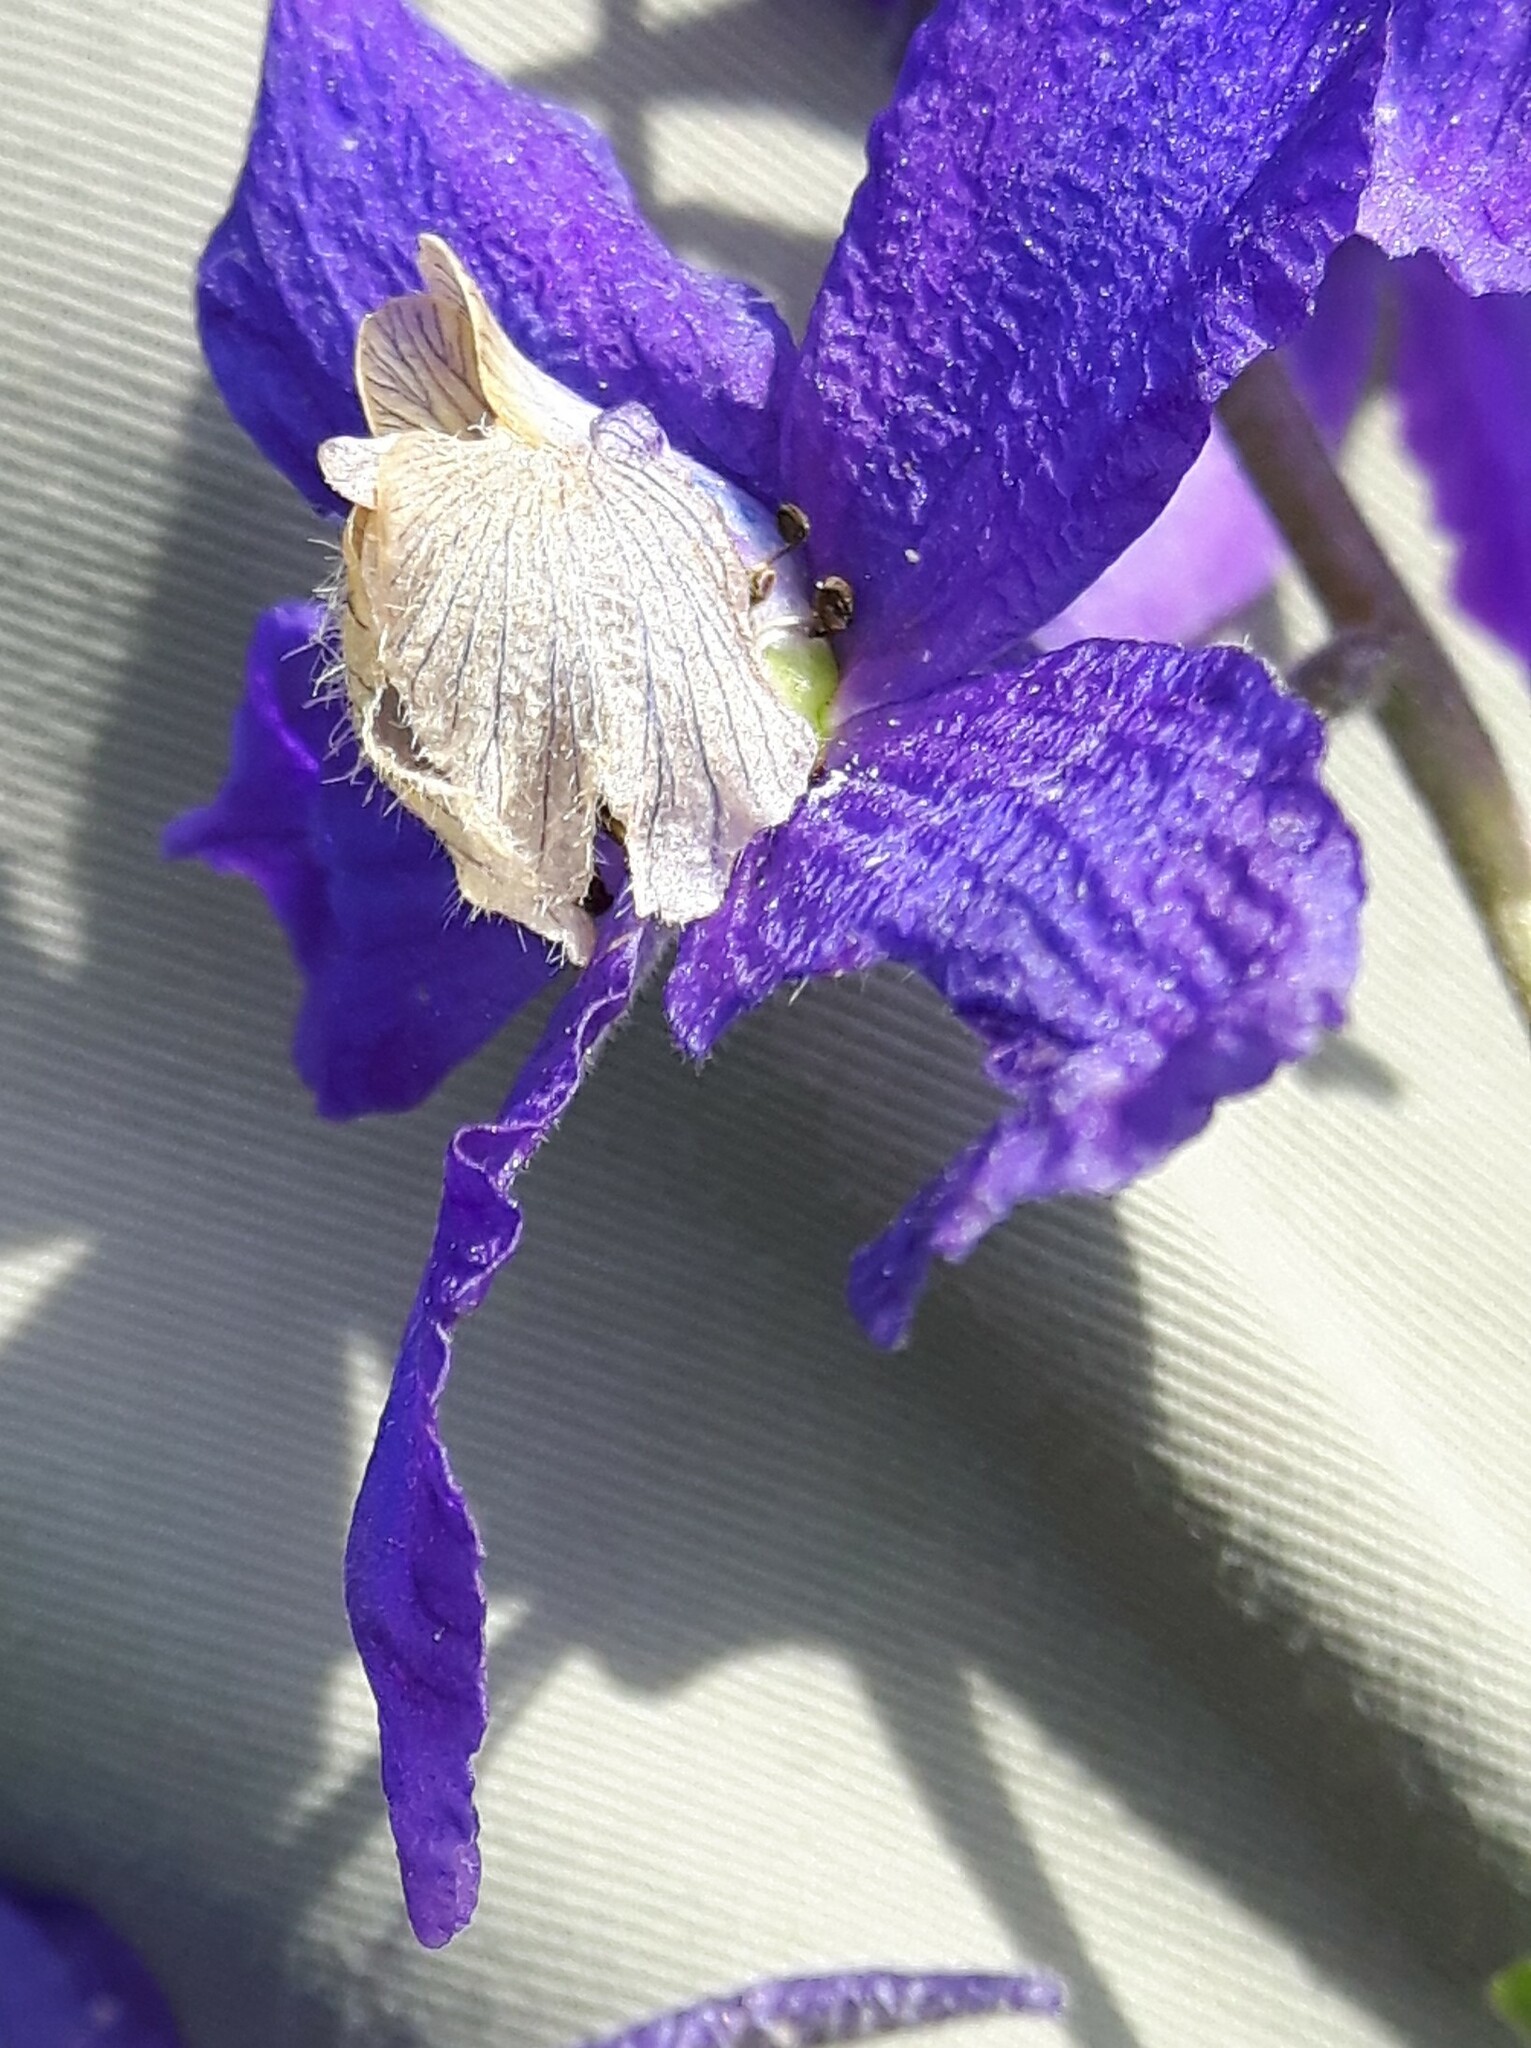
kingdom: Plantae
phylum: Tracheophyta
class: Magnoliopsida
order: Ranunculales
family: Ranunculaceae
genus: Delphinium
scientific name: Delphinium sutherlandii
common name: Sutherland's larkspur
